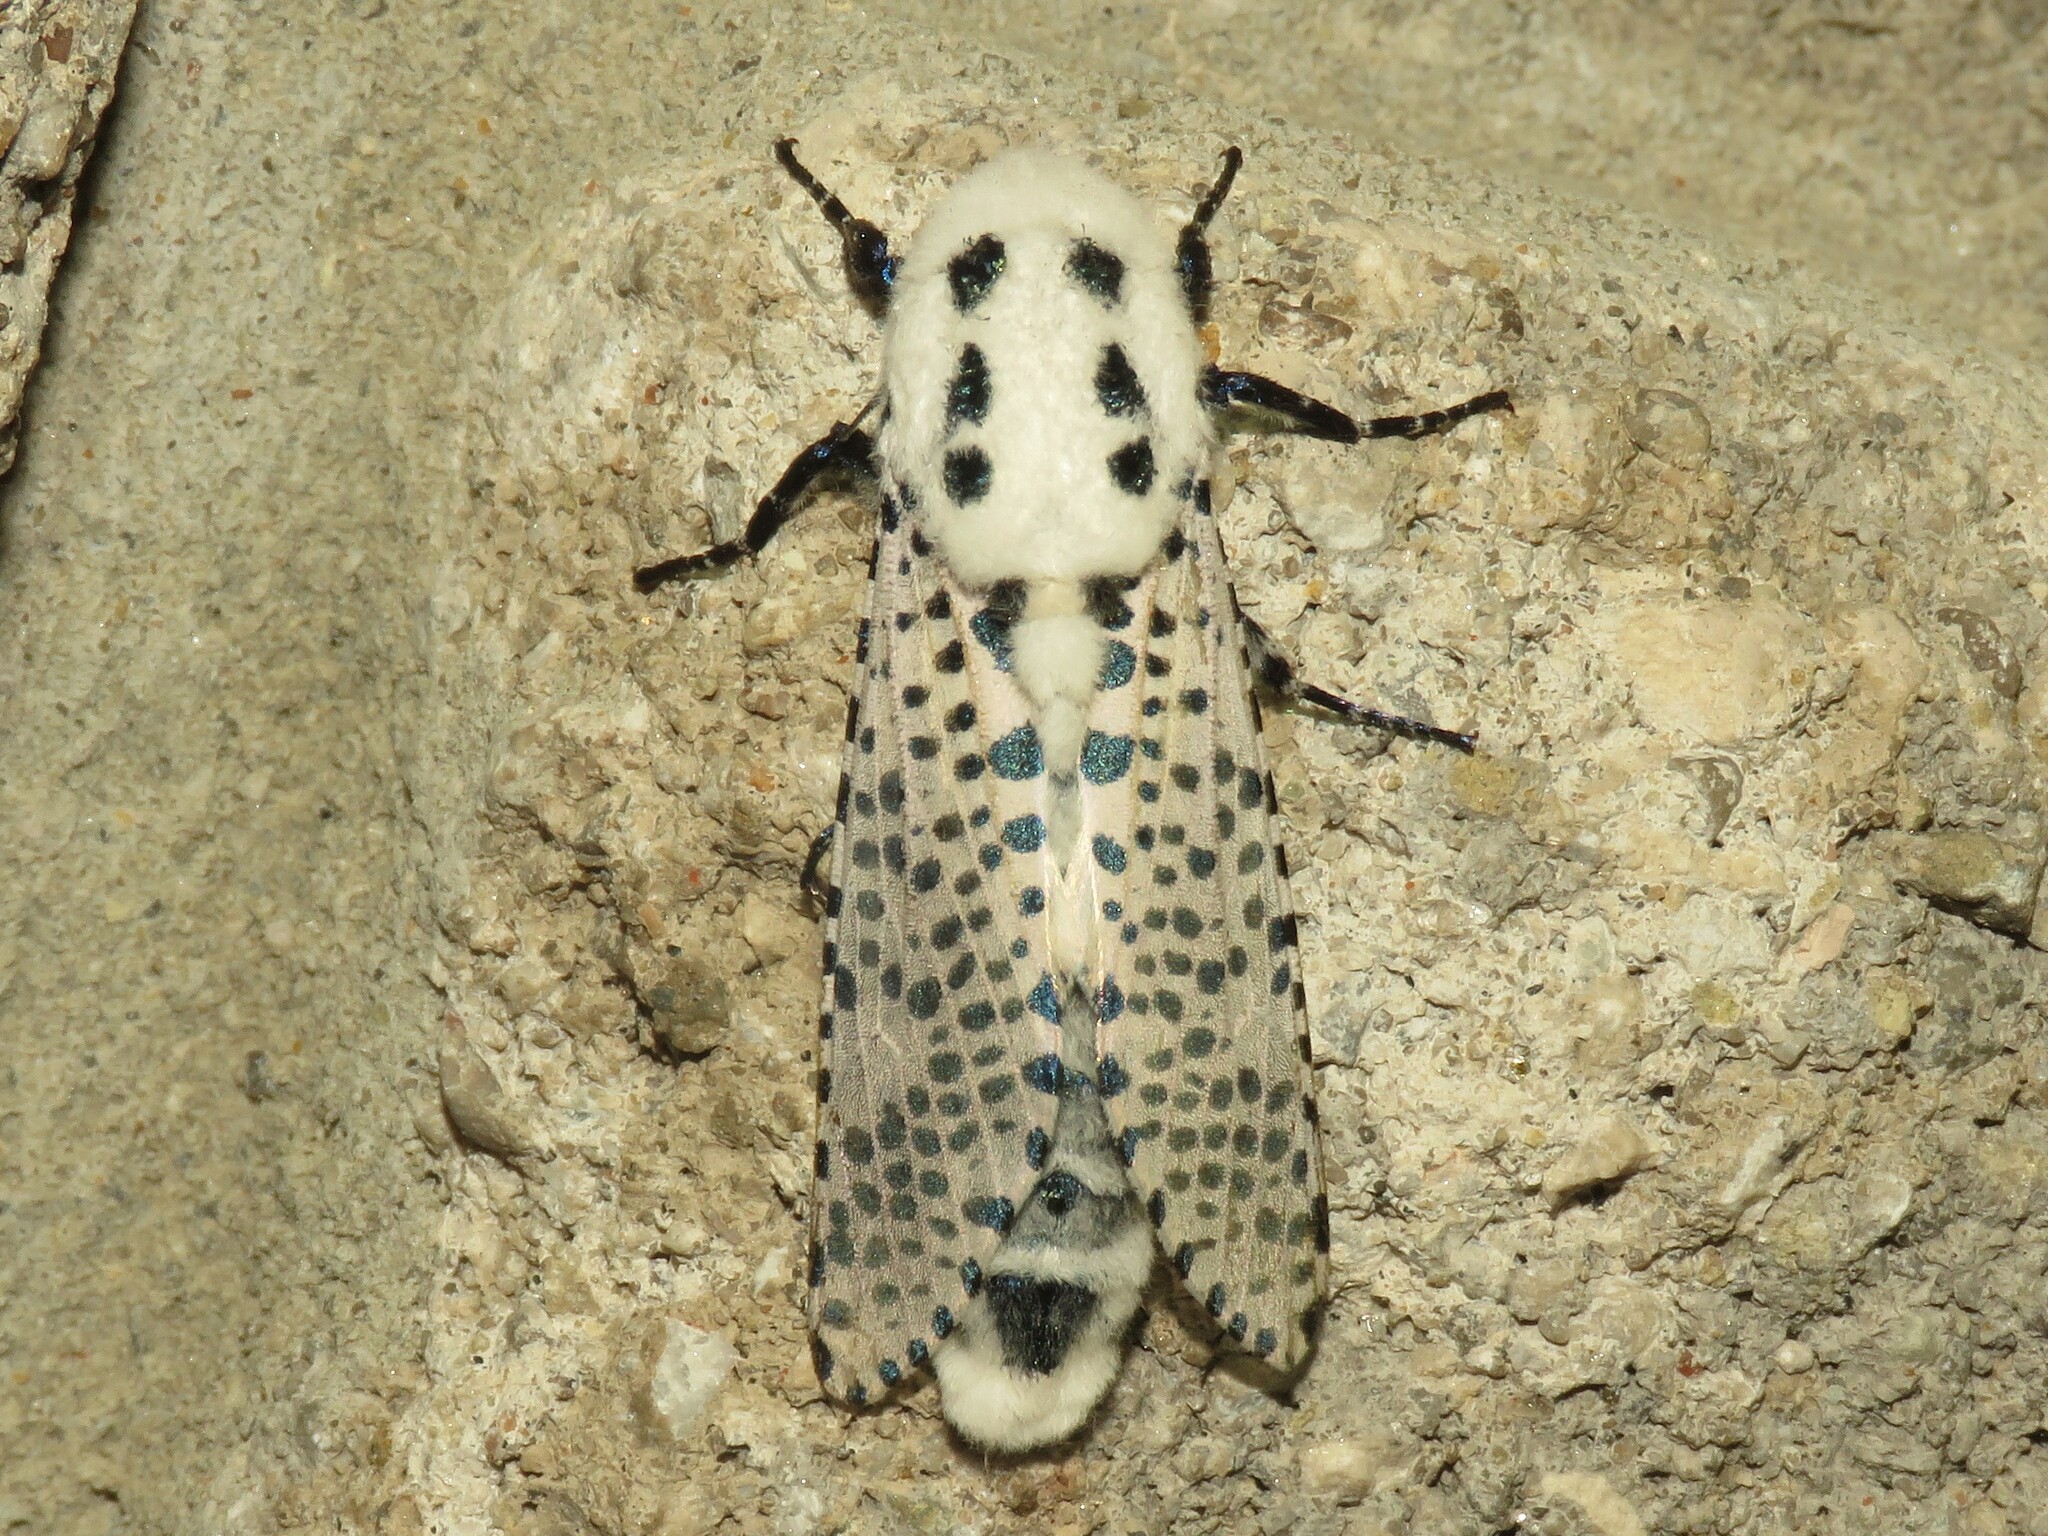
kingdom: Animalia
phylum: Arthropoda
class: Insecta
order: Lepidoptera
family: Cossidae
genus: Zeuzera
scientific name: Zeuzera pyrina
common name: Leopard moth
